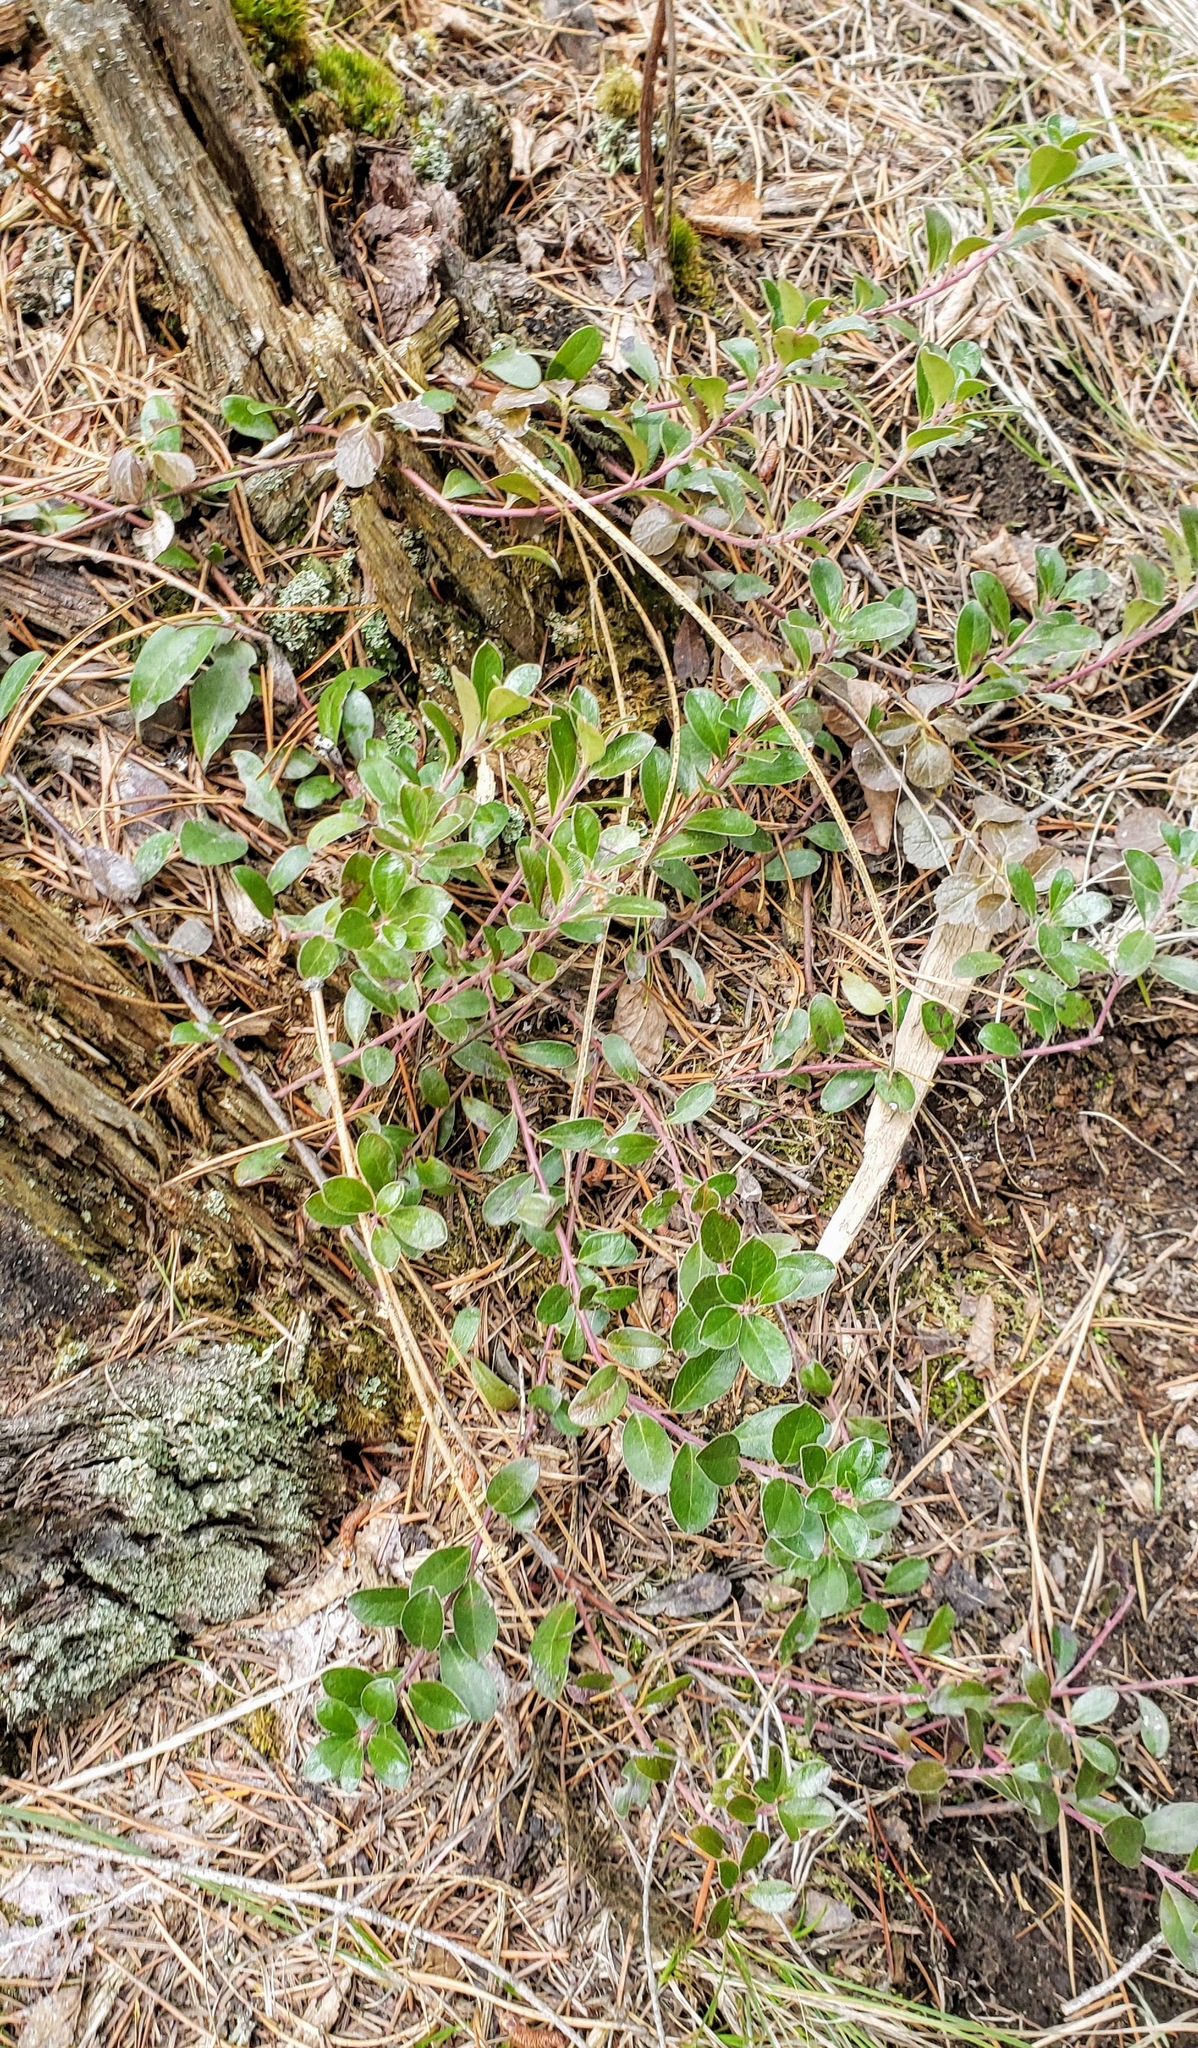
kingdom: Plantae
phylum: Tracheophyta
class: Magnoliopsida
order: Ericales
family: Ericaceae
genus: Arctostaphylos
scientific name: Arctostaphylos uva-ursi
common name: Bearberry
